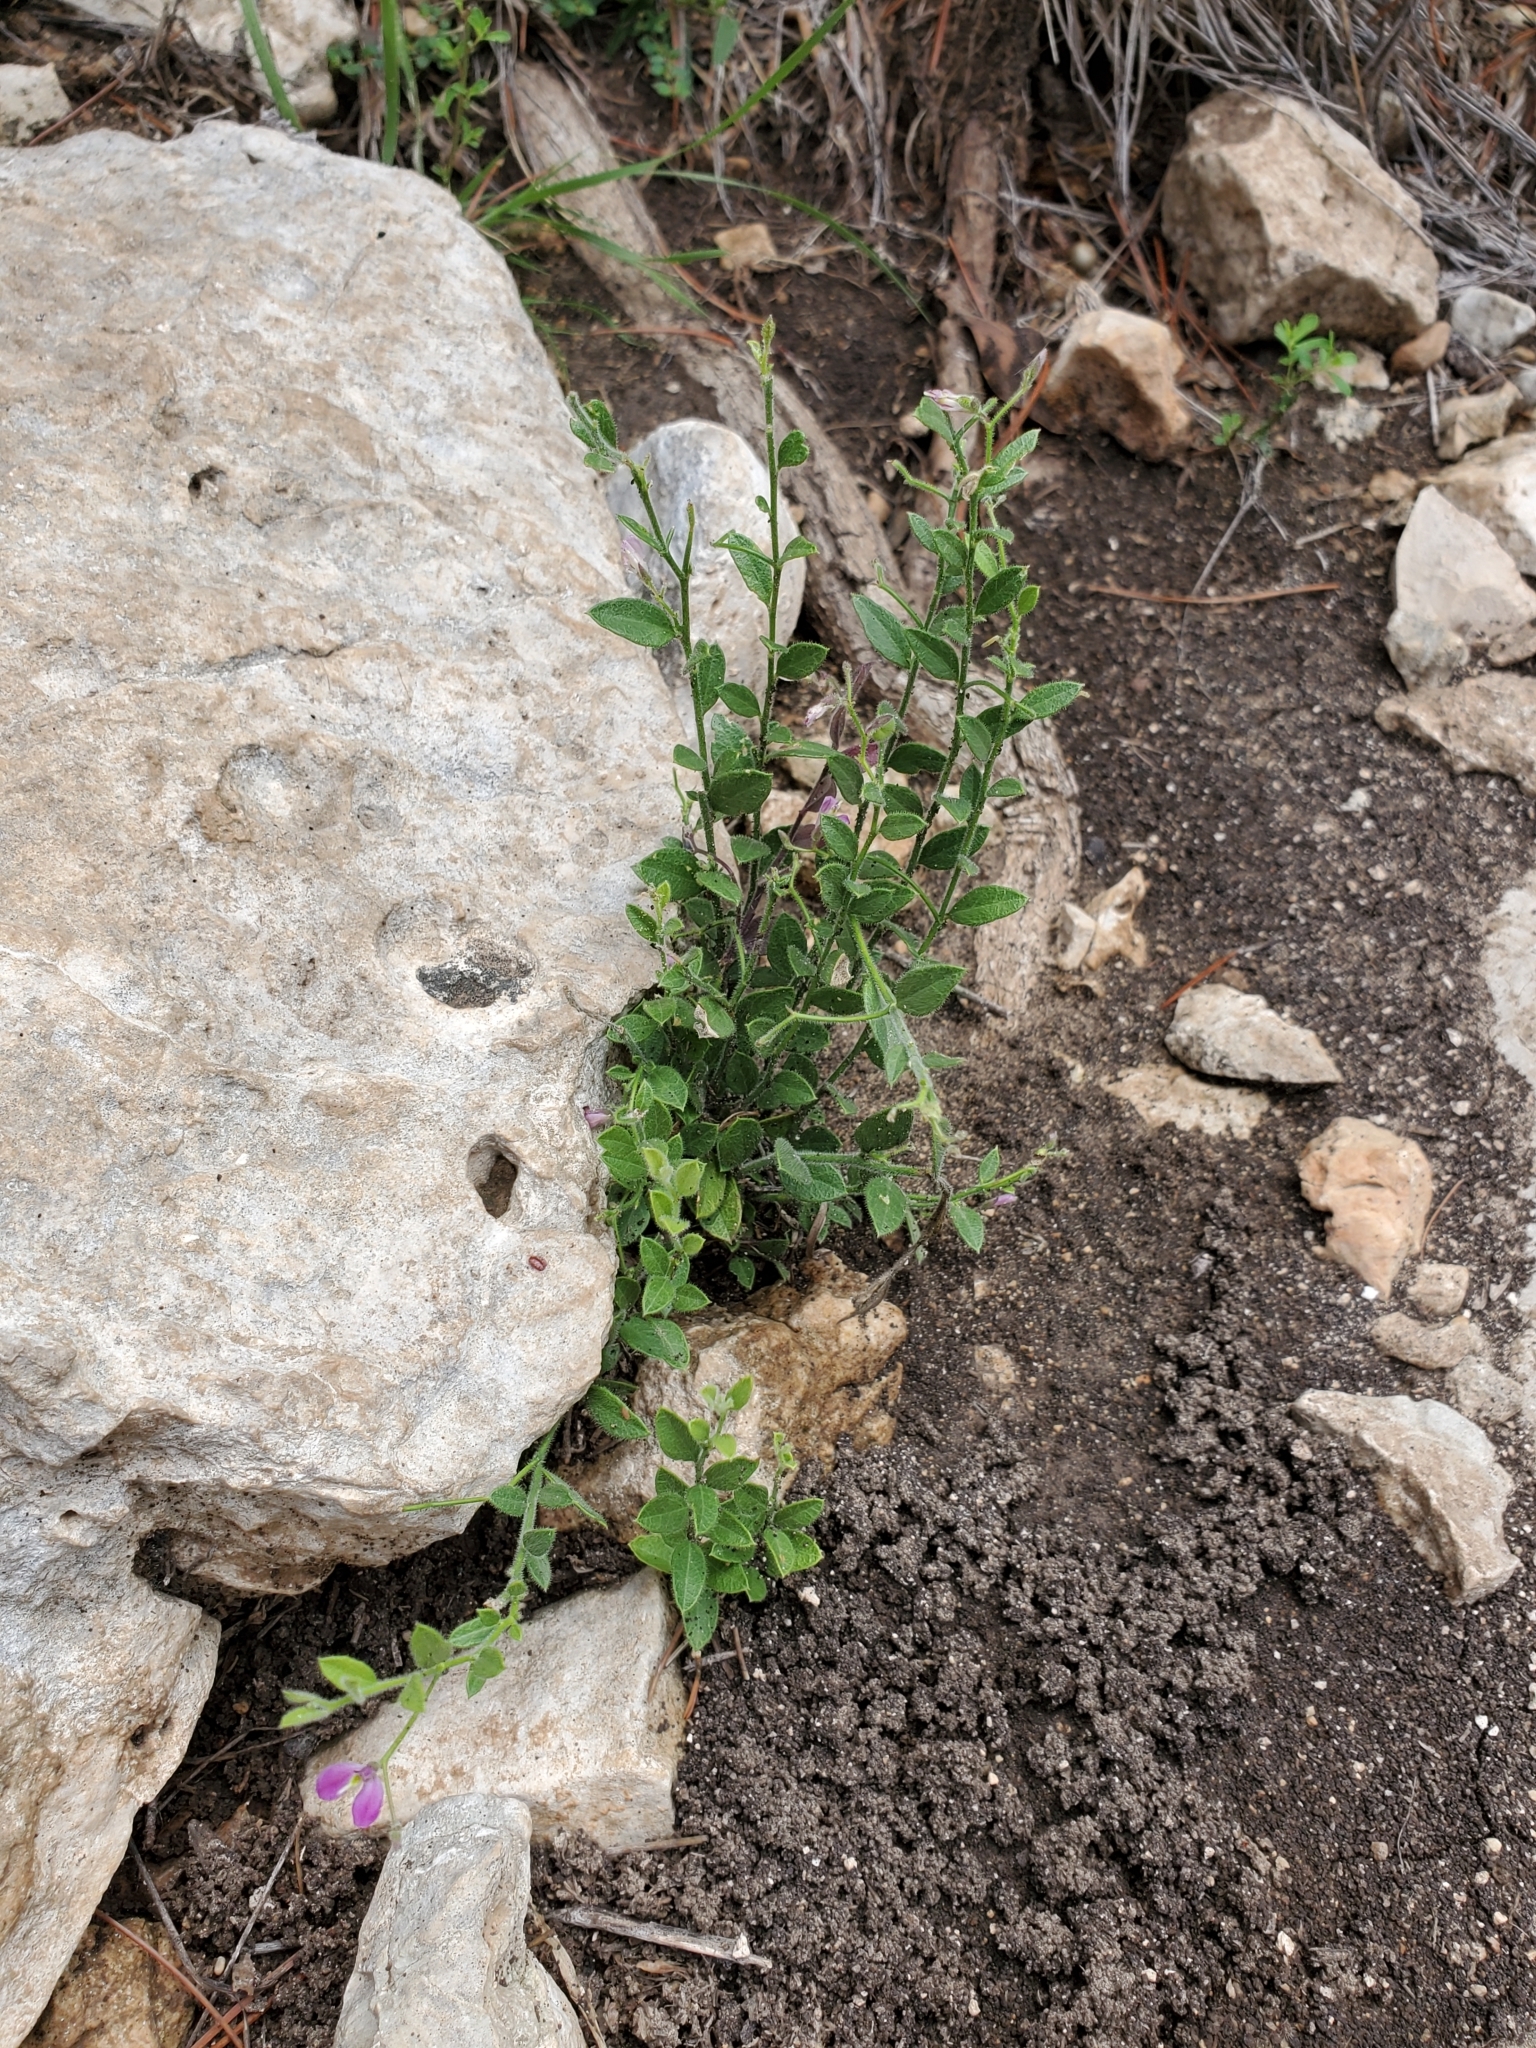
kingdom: Plantae
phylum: Tracheophyta
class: Magnoliopsida
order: Fabales
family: Polygalaceae
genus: Rhinotropis
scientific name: Rhinotropis lindheimeri
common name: Shrubby milkwort
